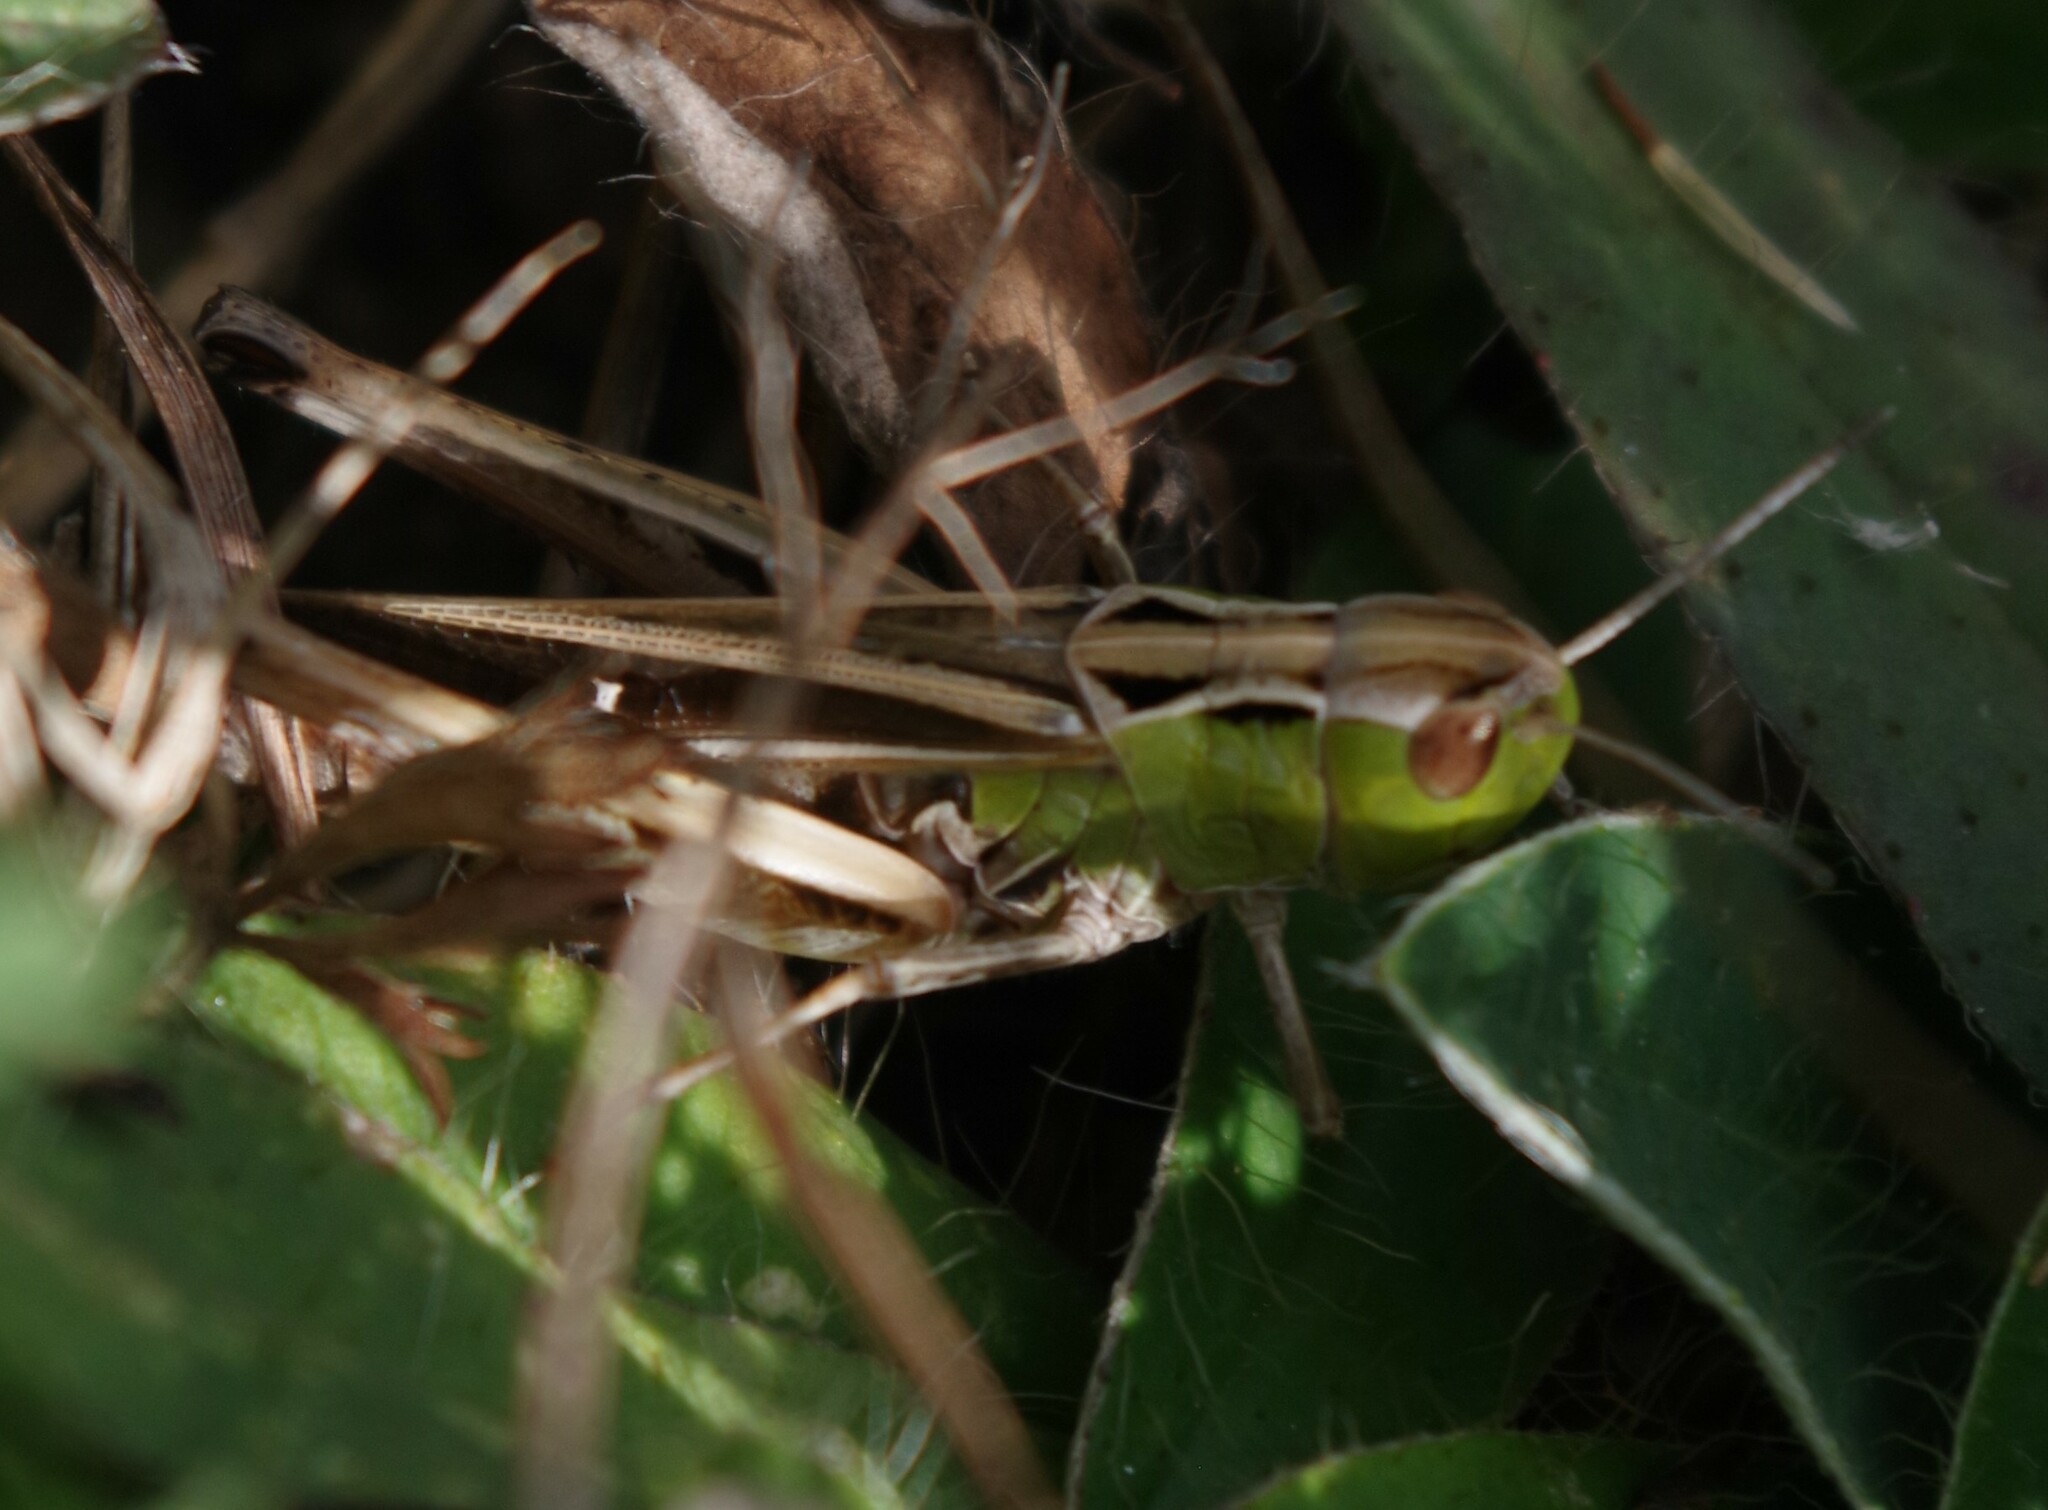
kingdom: Animalia
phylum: Arthropoda
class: Insecta
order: Orthoptera
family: Acrididae
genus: Stenobothrus
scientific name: Stenobothrus lineatus
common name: Stripe-winged grasshopper
